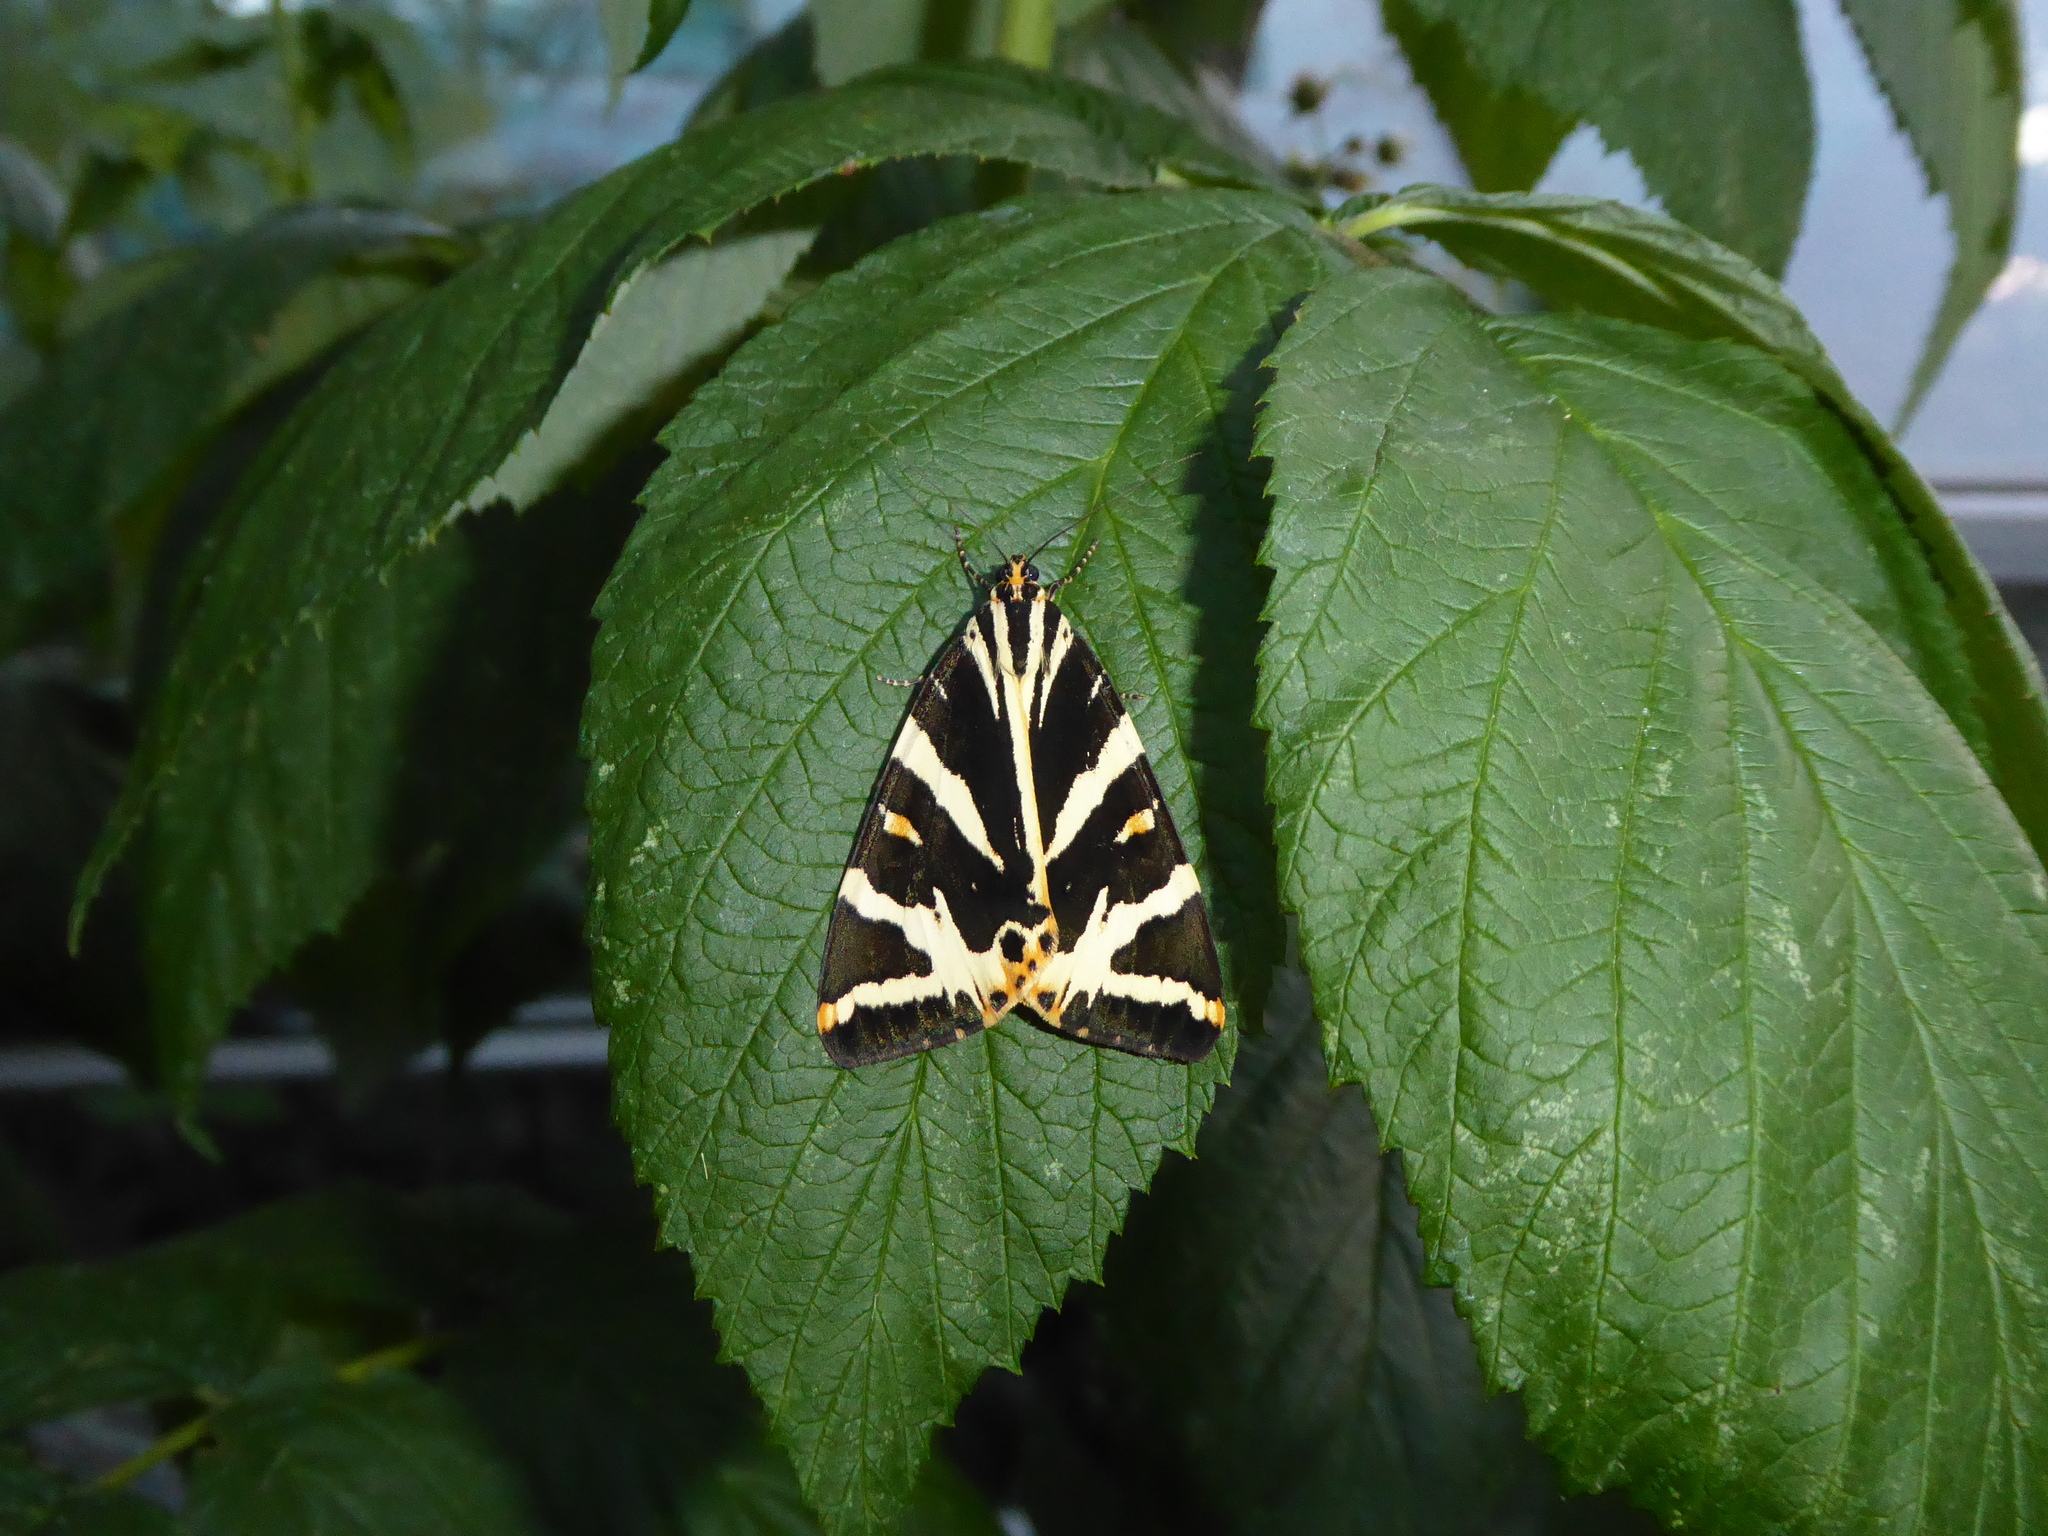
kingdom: Animalia
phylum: Arthropoda
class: Insecta
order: Lepidoptera
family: Erebidae
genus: Euplagia
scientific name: Euplagia quadripunctaria
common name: Jersey tiger
